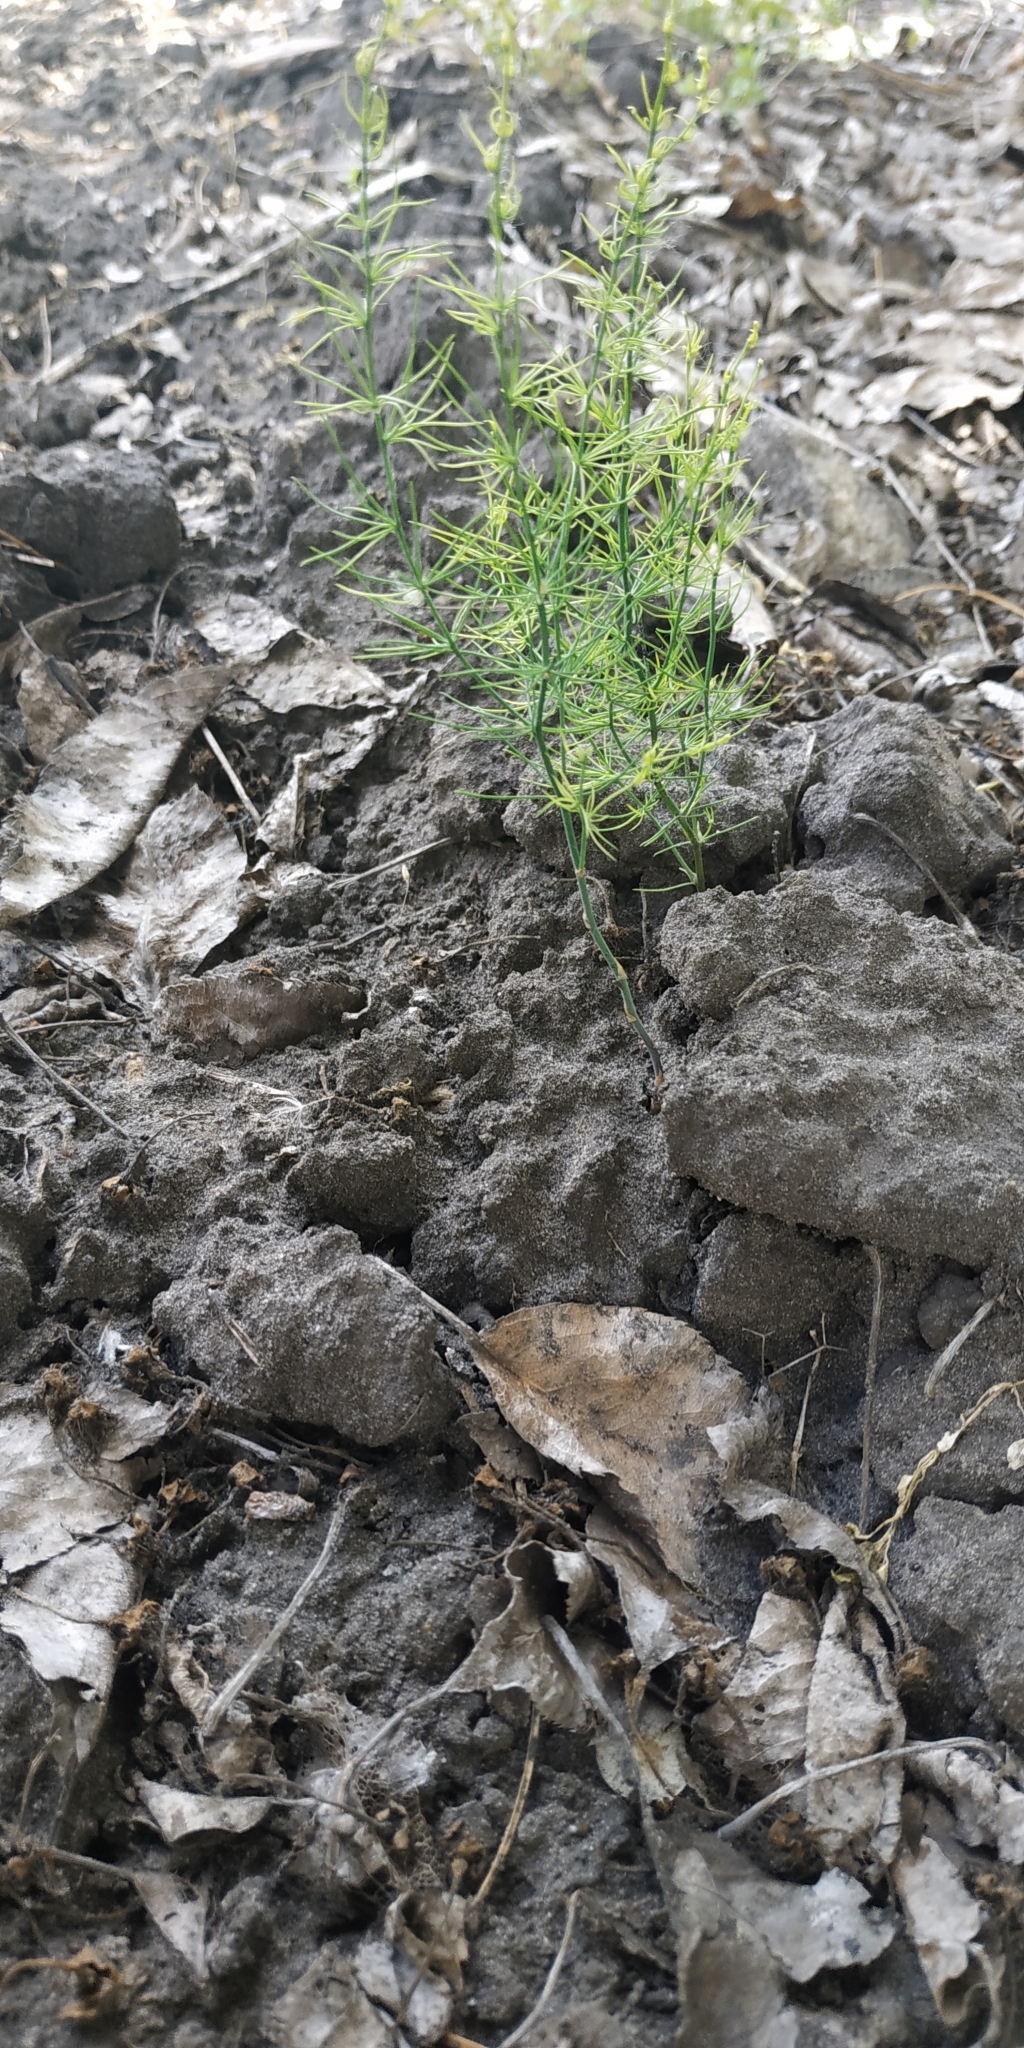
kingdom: Plantae
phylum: Tracheophyta
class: Magnoliopsida
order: Caryophyllales
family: Caryophyllaceae
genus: Spergula
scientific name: Spergula arvensis
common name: Corn spurrey
